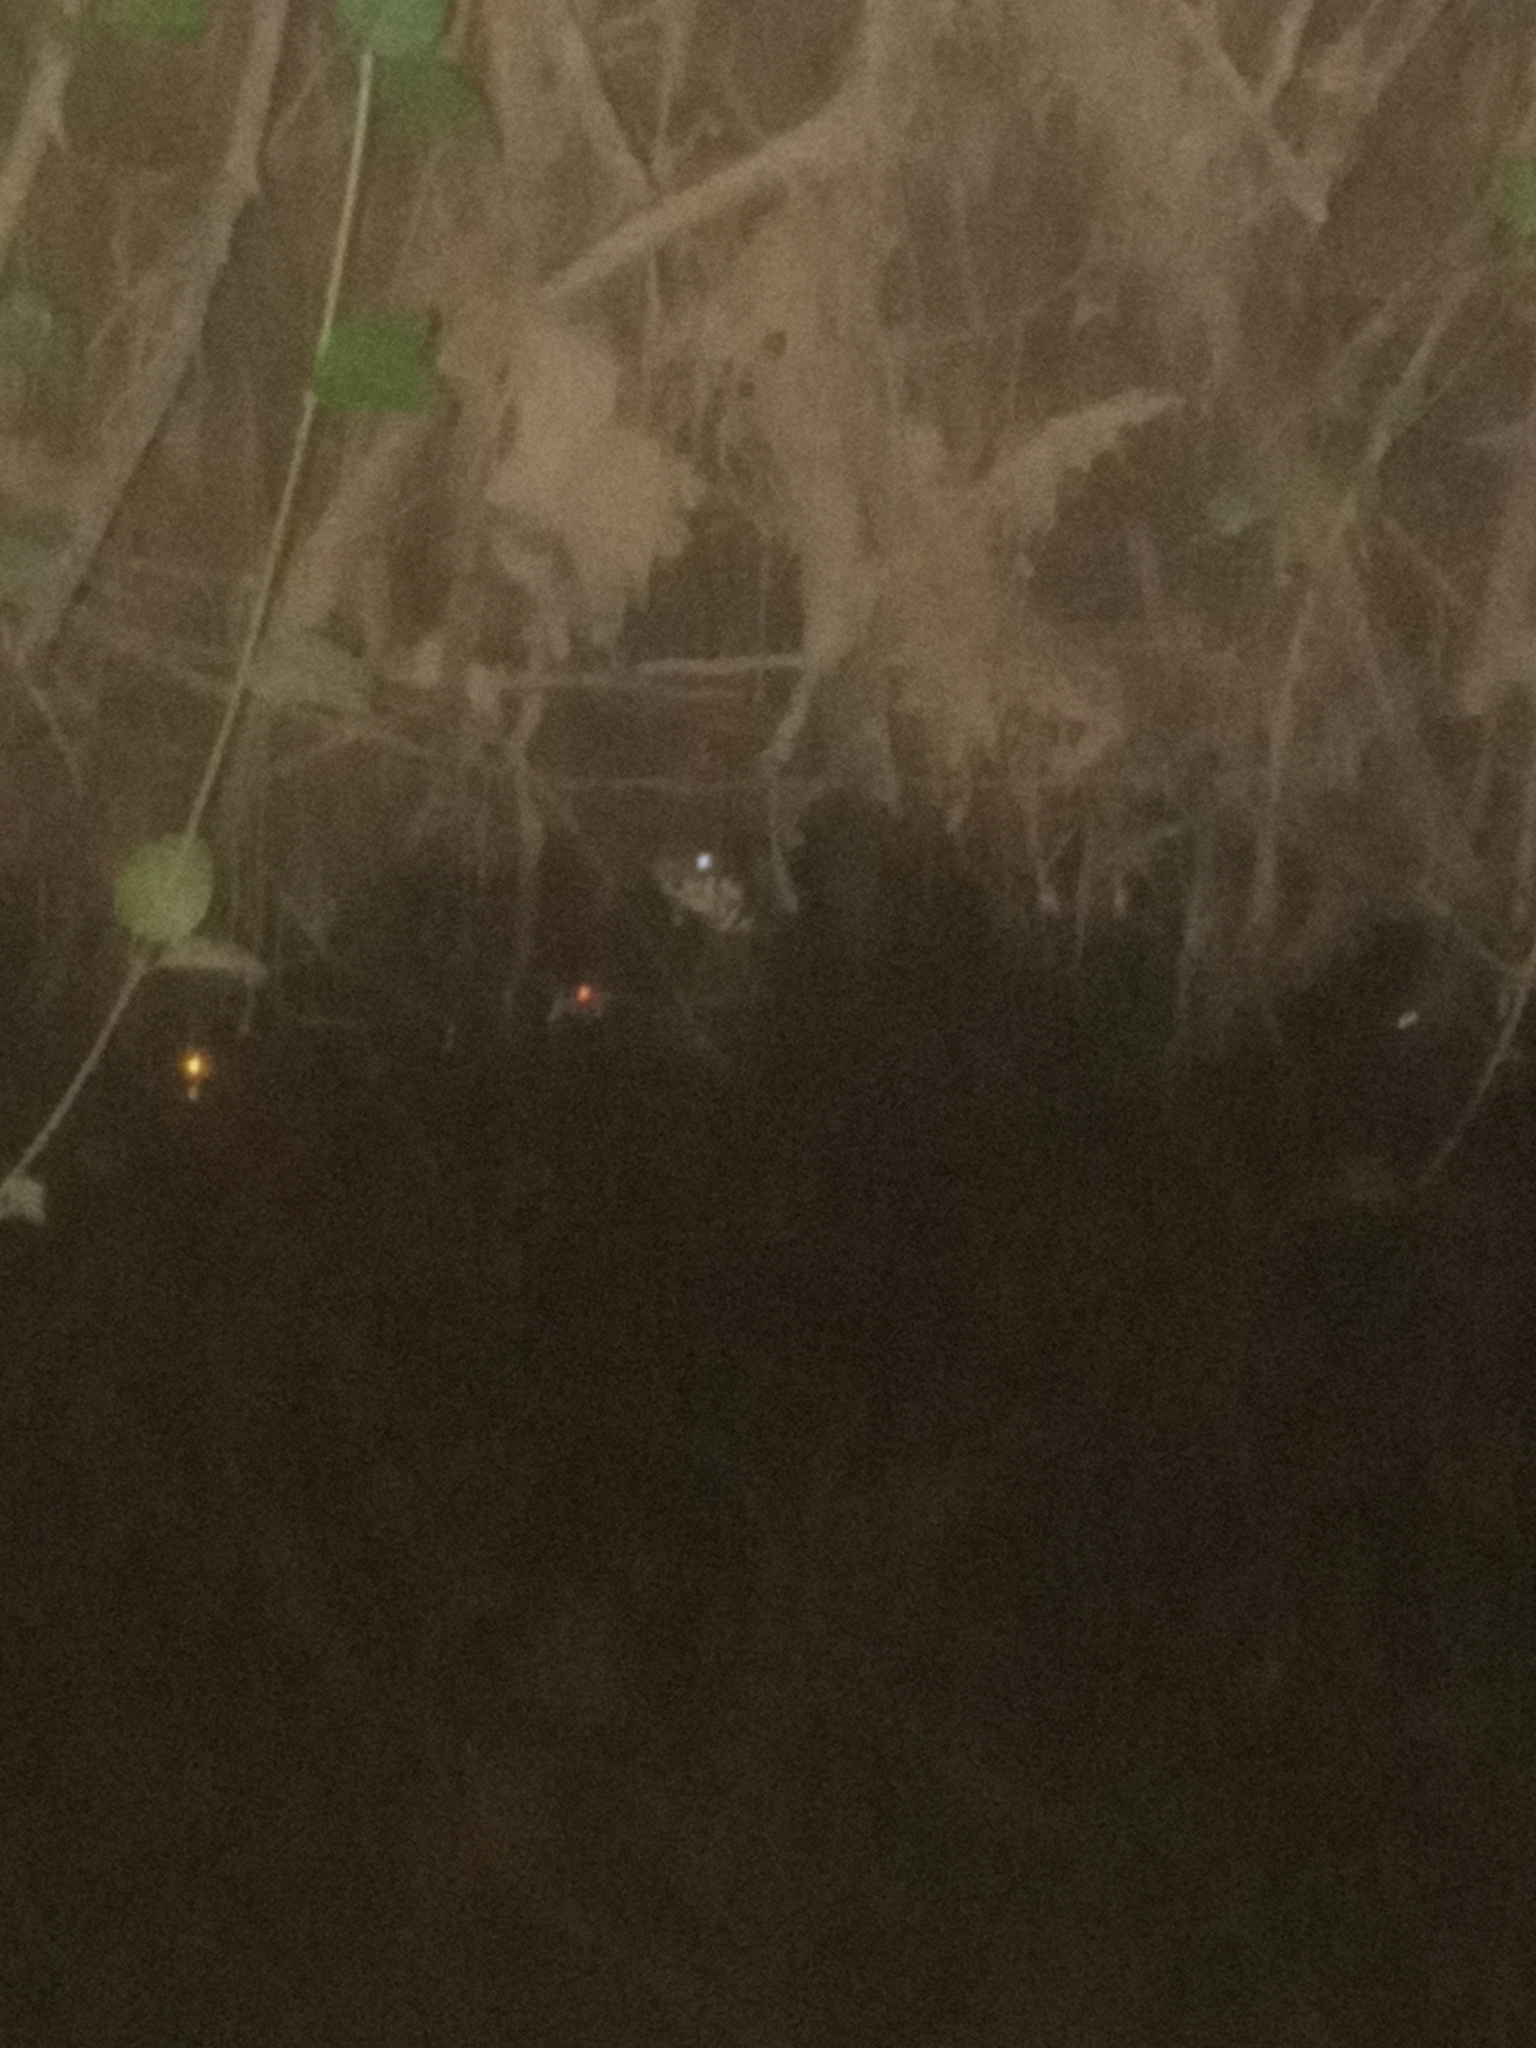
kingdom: Animalia
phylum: Chordata
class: Squamata
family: Viperidae
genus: Agkistrodon
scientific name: Agkistrodon piscivorus
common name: Cottonmouth
